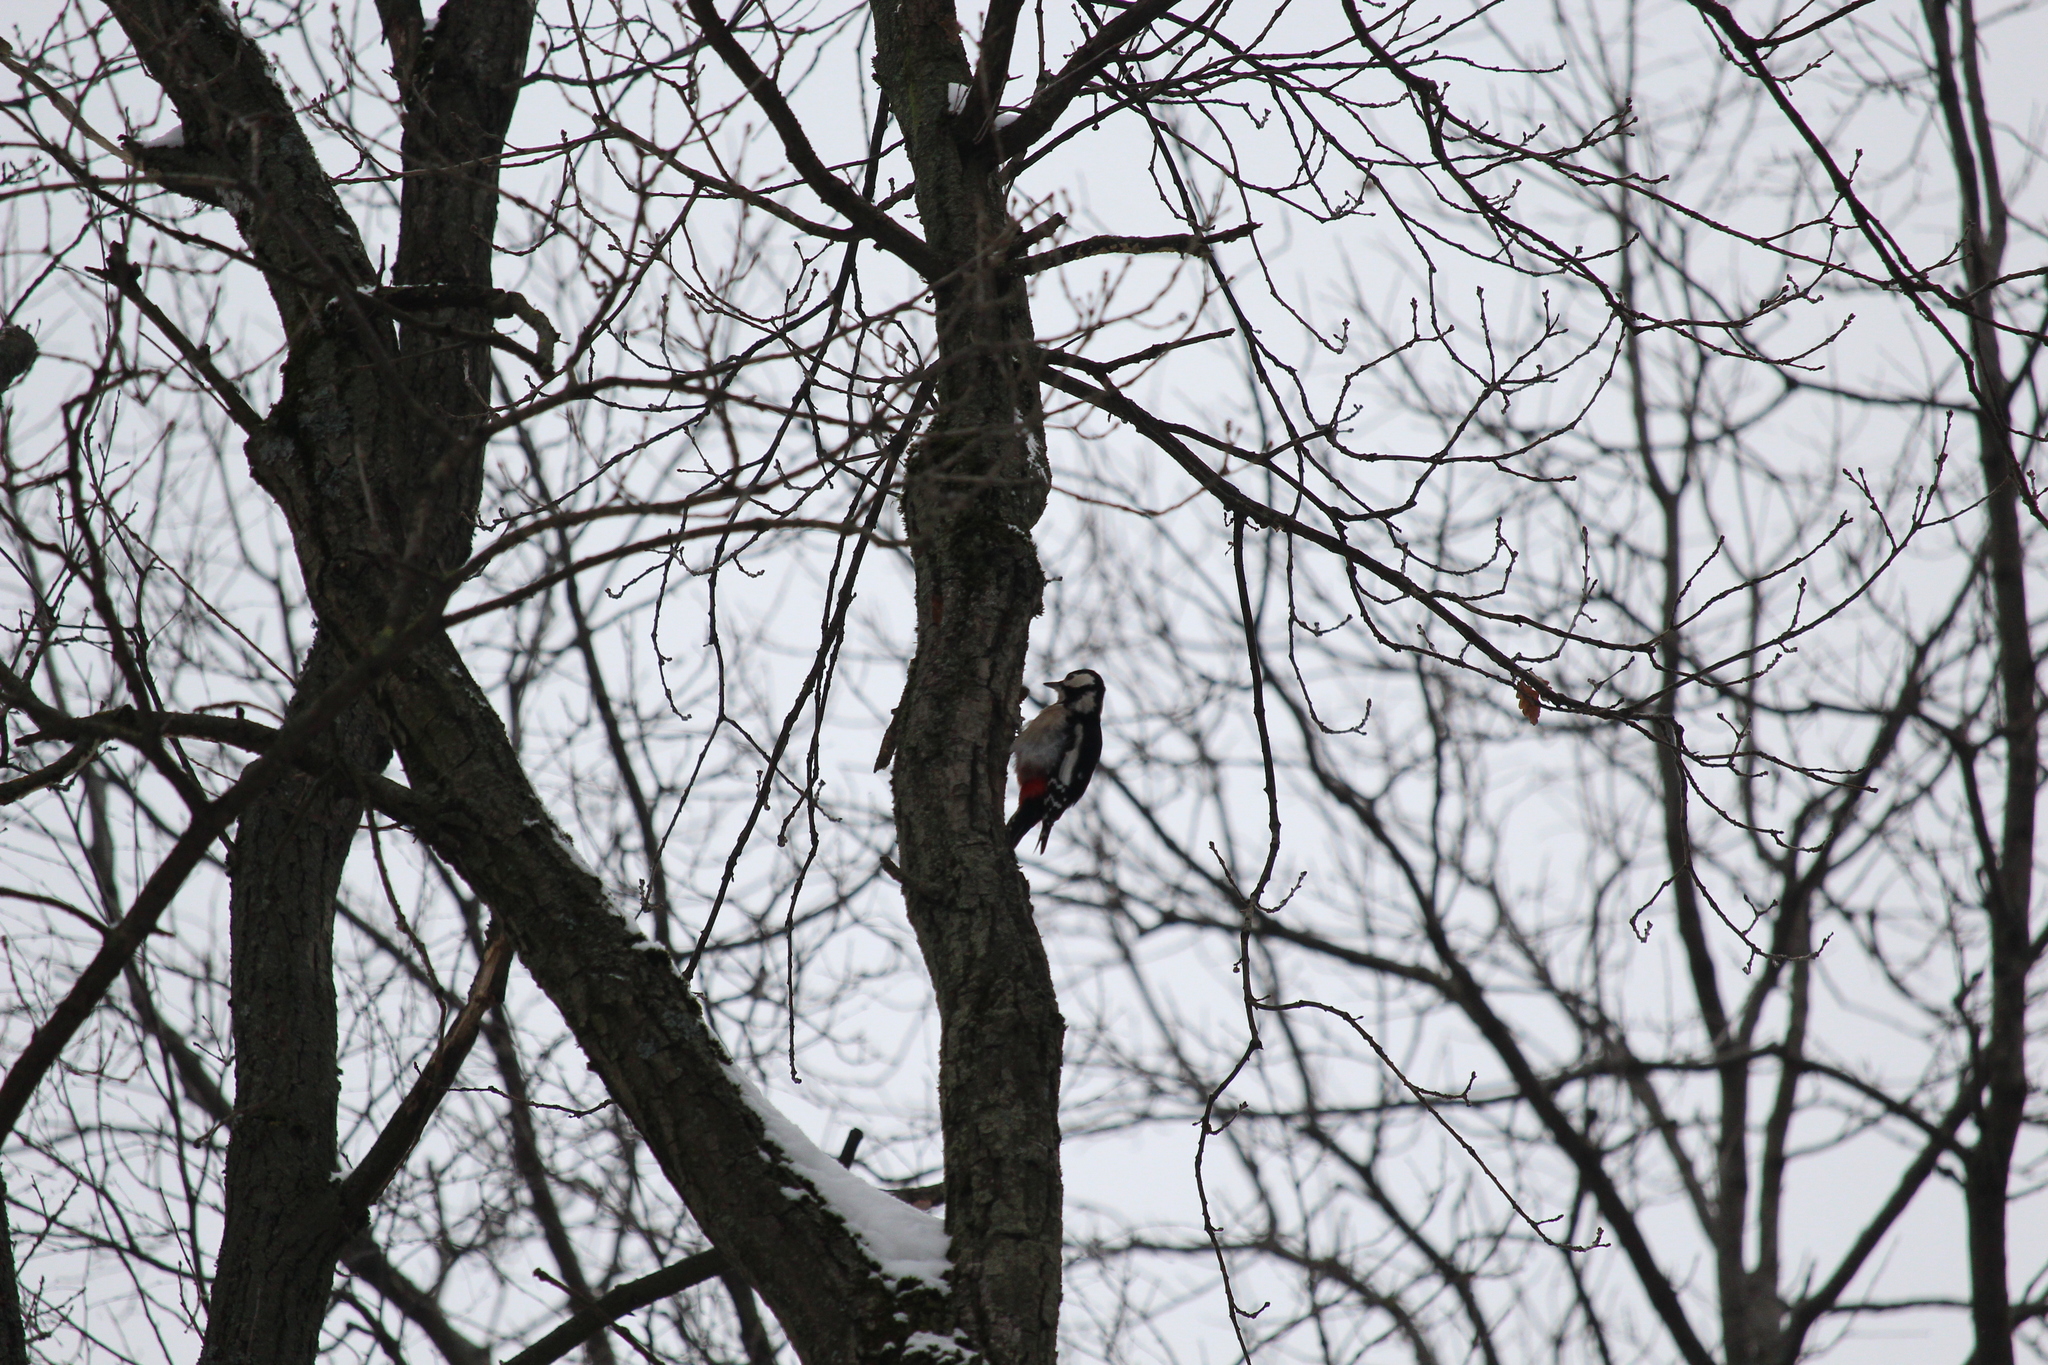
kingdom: Animalia
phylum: Chordata
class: Aves
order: Piciformes
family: Picidae
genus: Dendrocopos
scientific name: Dendrocopos major
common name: Great spotted woodpecker
